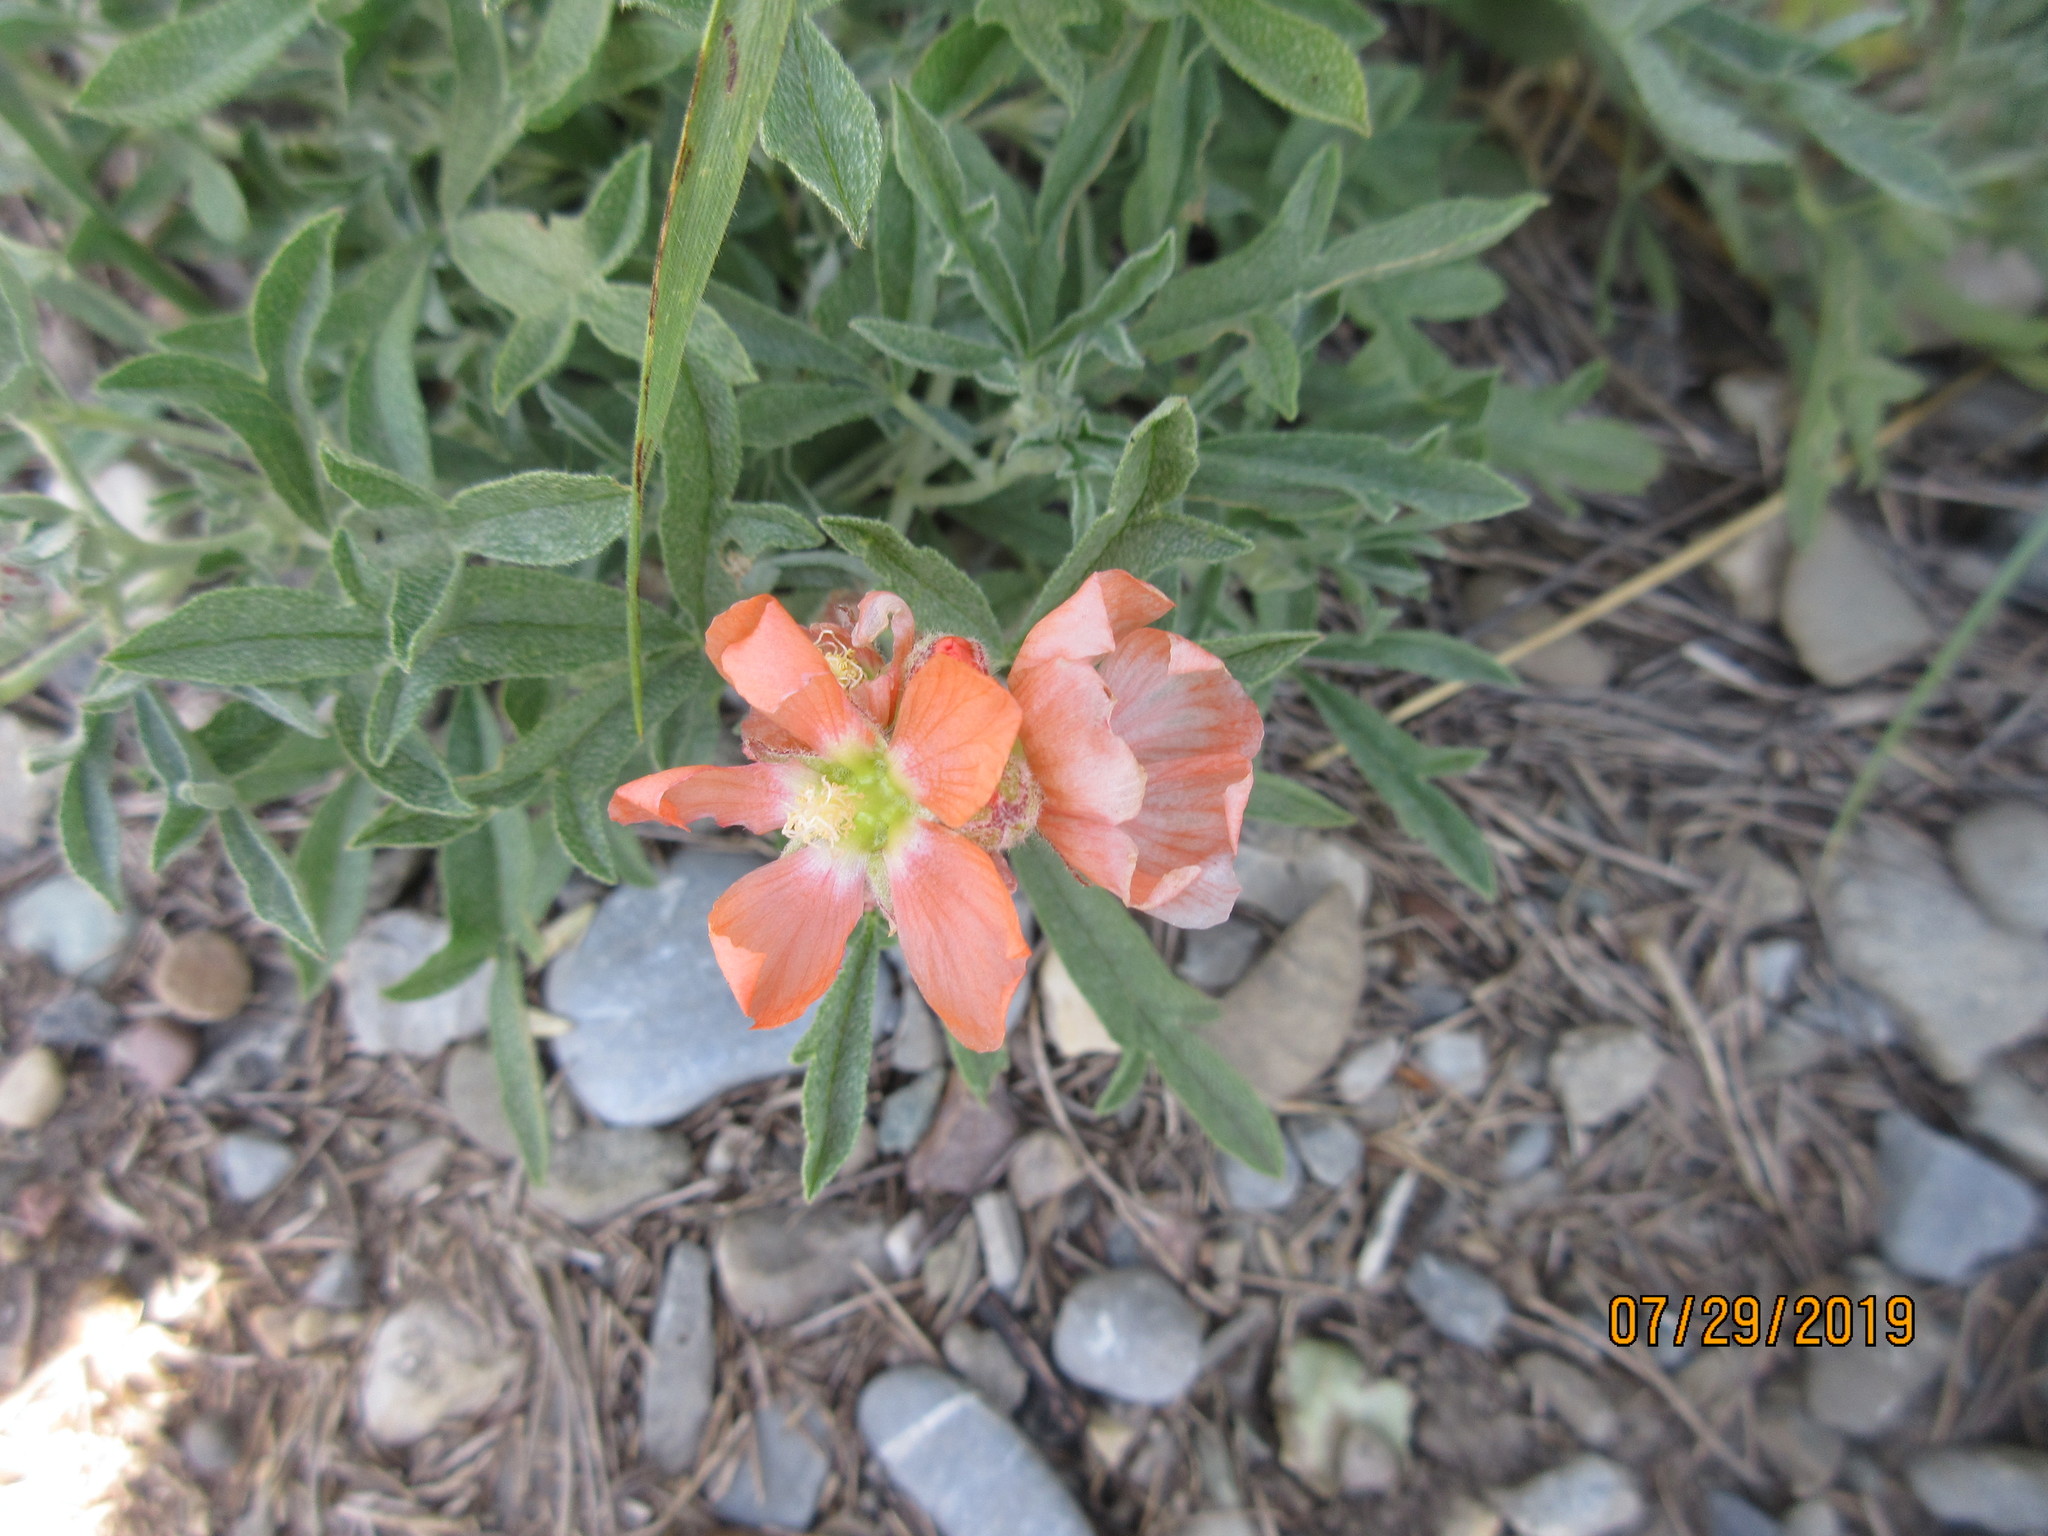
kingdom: Plantae
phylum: Tracheophyta
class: Magnoliopsida
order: Malvales
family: Malvaceae
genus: Sphaeralcea
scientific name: Sphaeralcea coccinea
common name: Moss-rose
